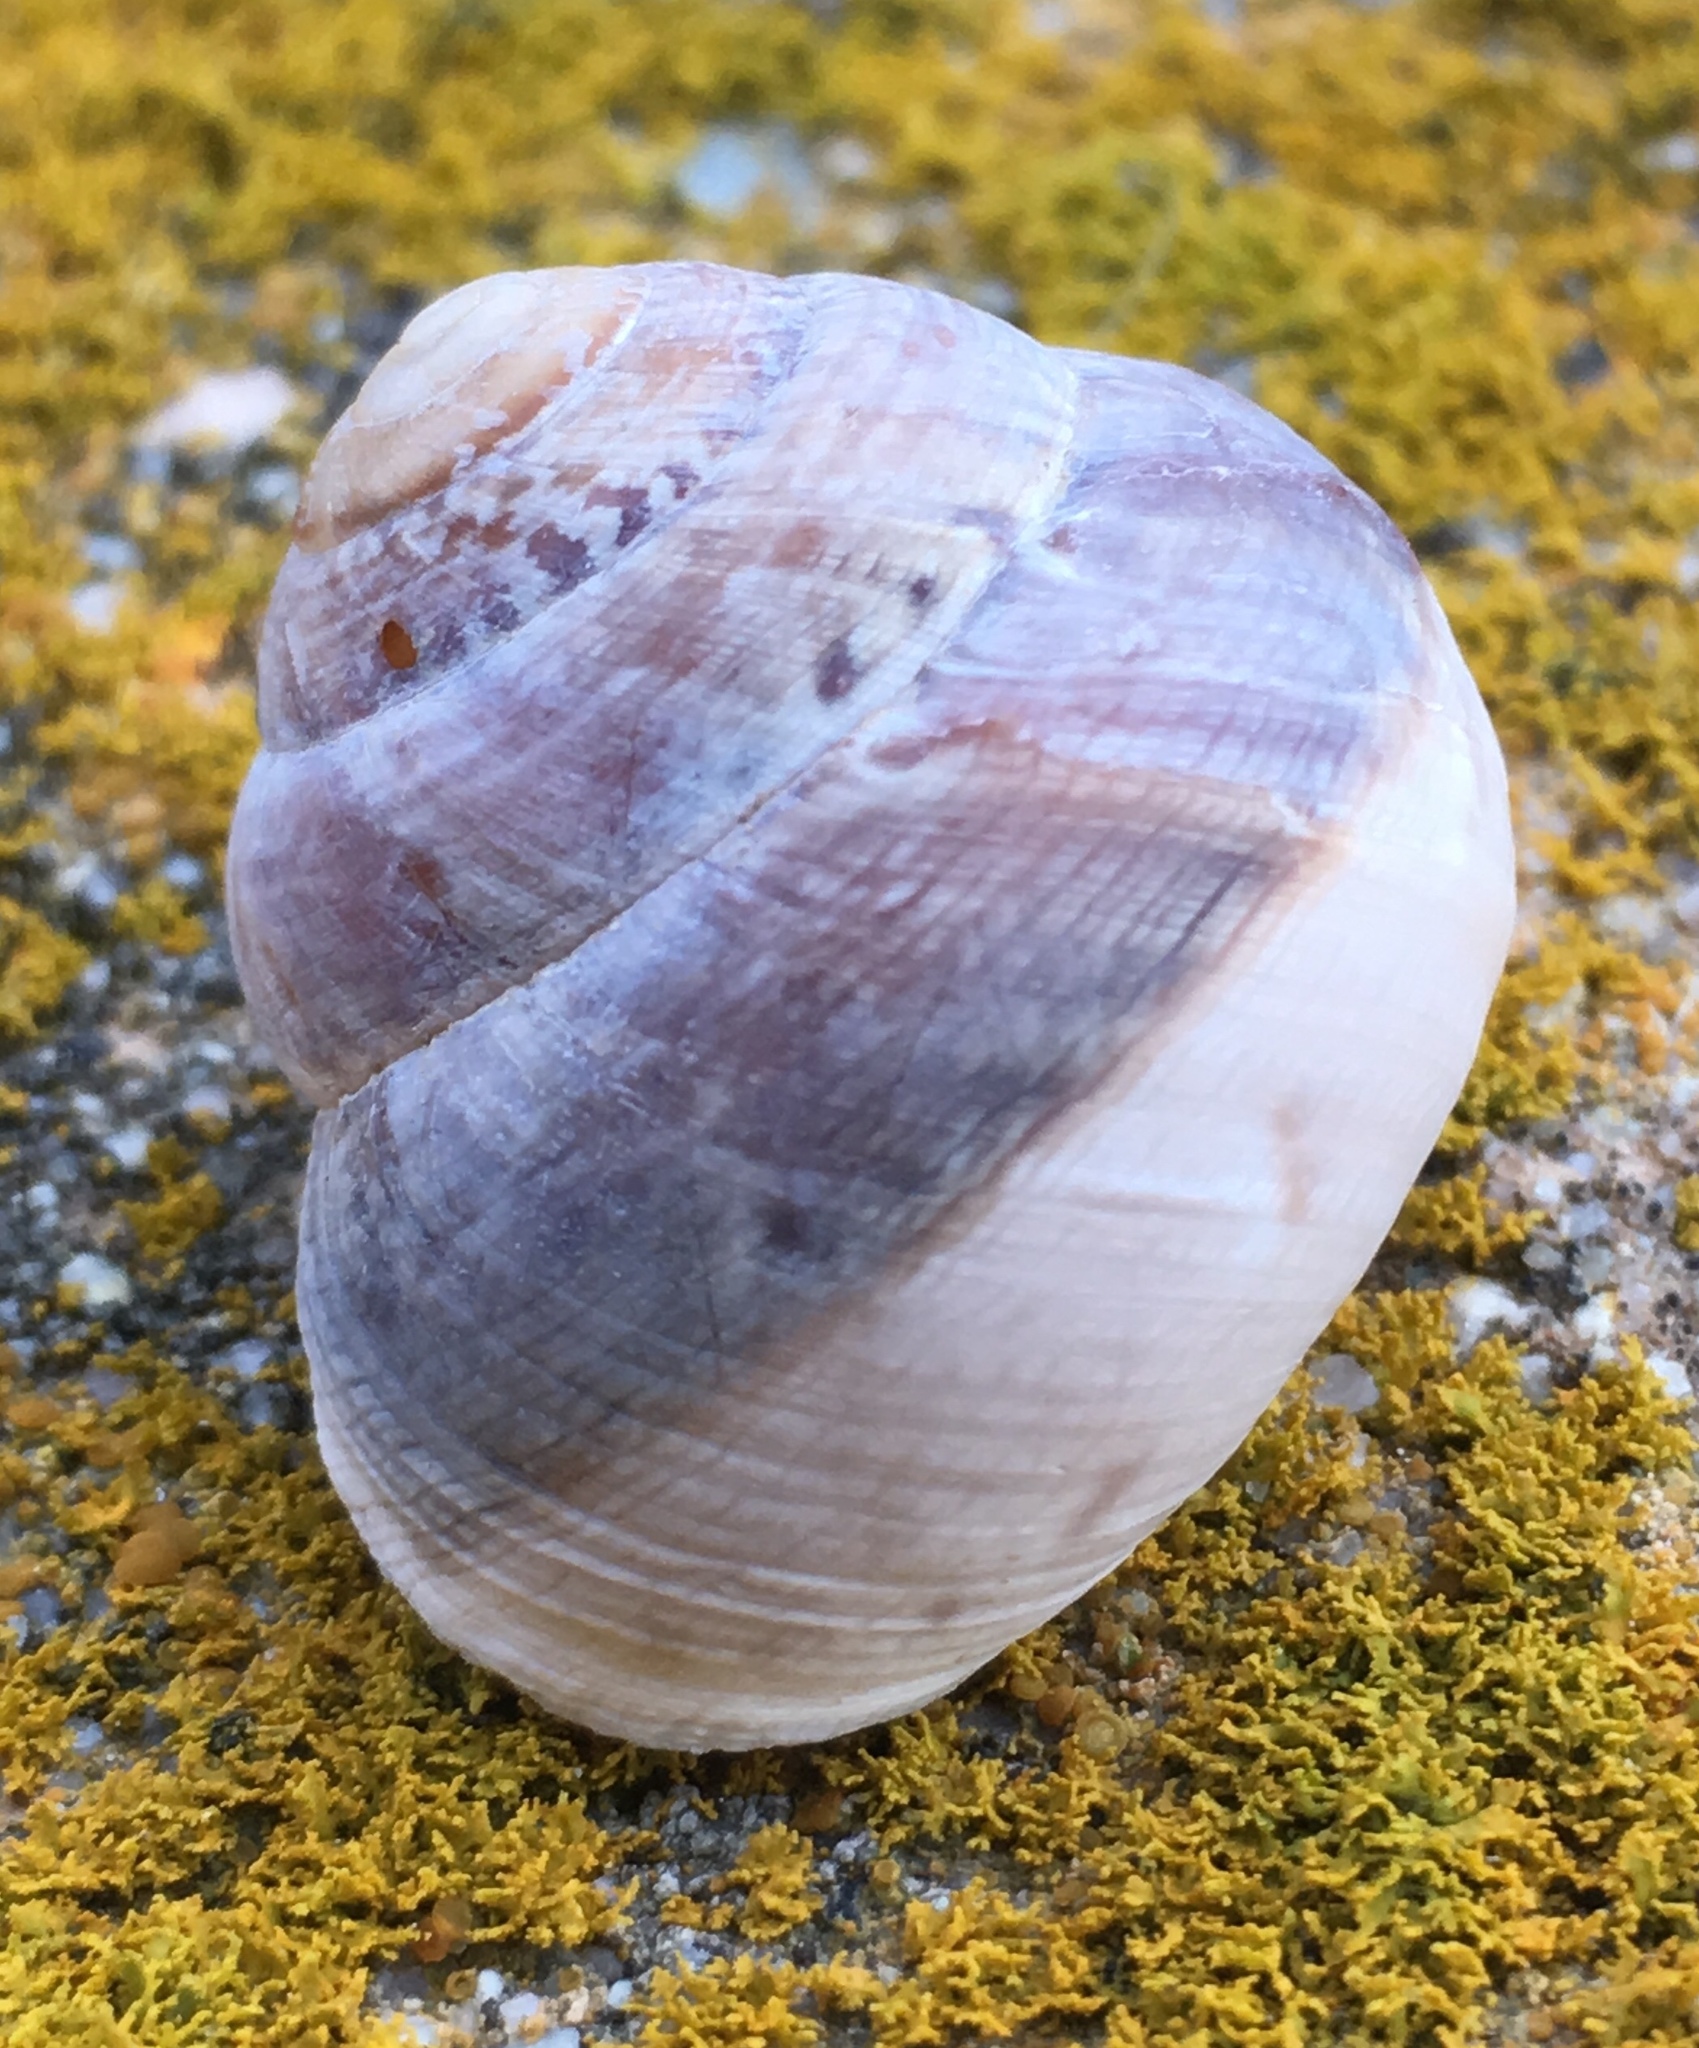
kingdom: Animalia
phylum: Mollusca
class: Gastropoda
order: Stylommatophora
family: Xanthonychidae
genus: Xerarionta
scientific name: Xerarionta tryoni
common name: Bicolor cactus snail
